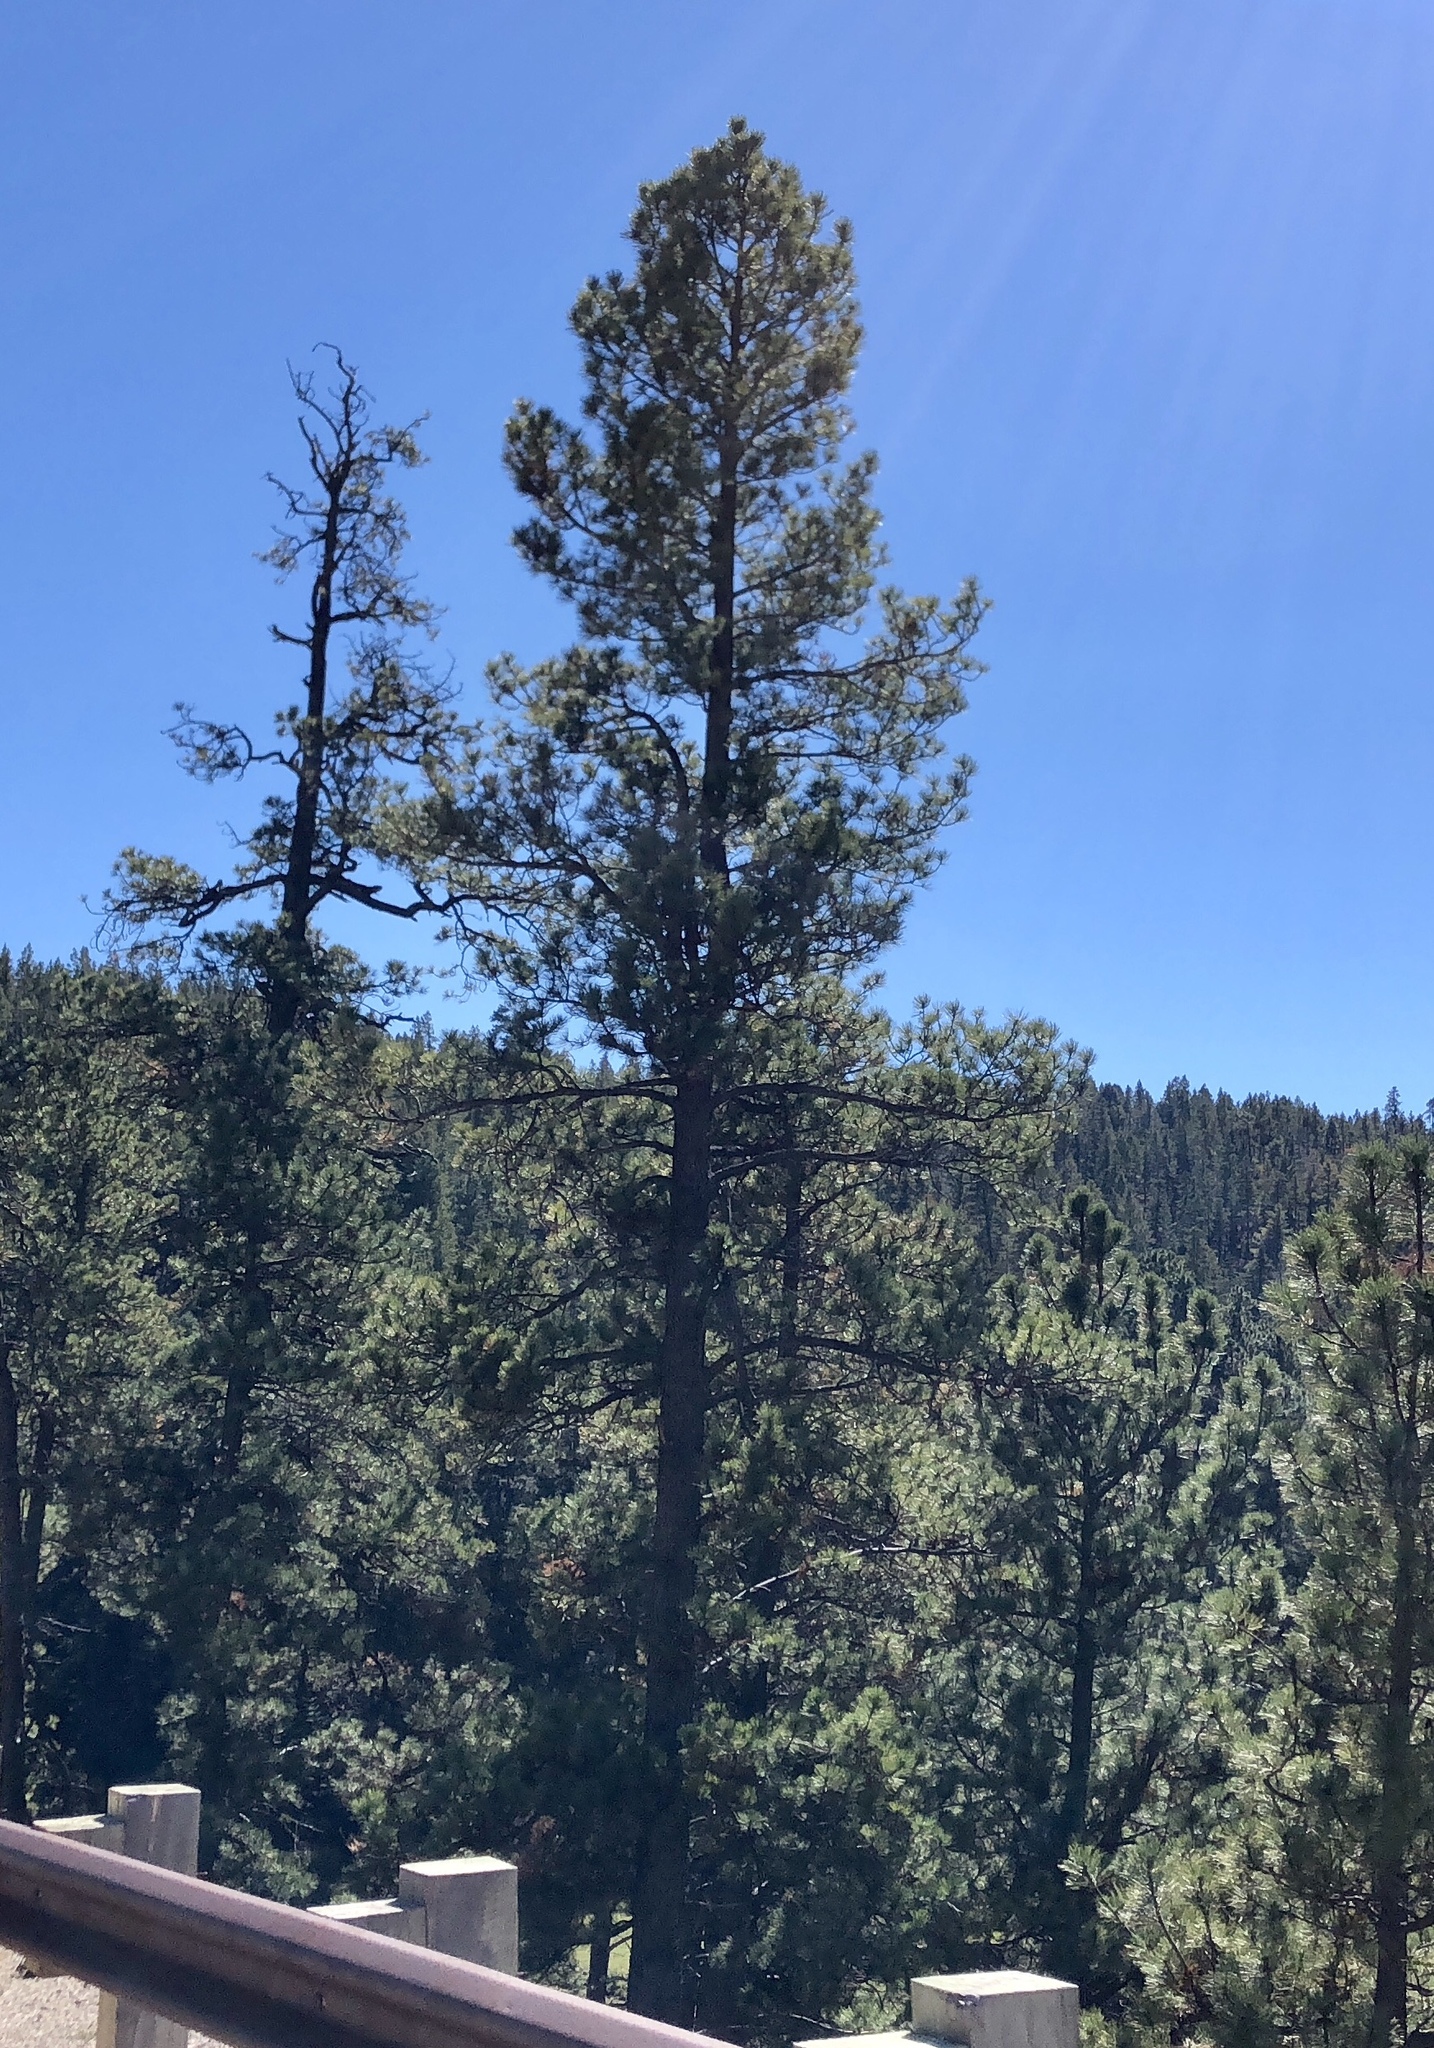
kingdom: Plantae
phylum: Tracheophyta
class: Pinopsida
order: Pinales
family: Pinaceae
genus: Pinus
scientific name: Pinus ponderosa
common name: Western yellow-pine
